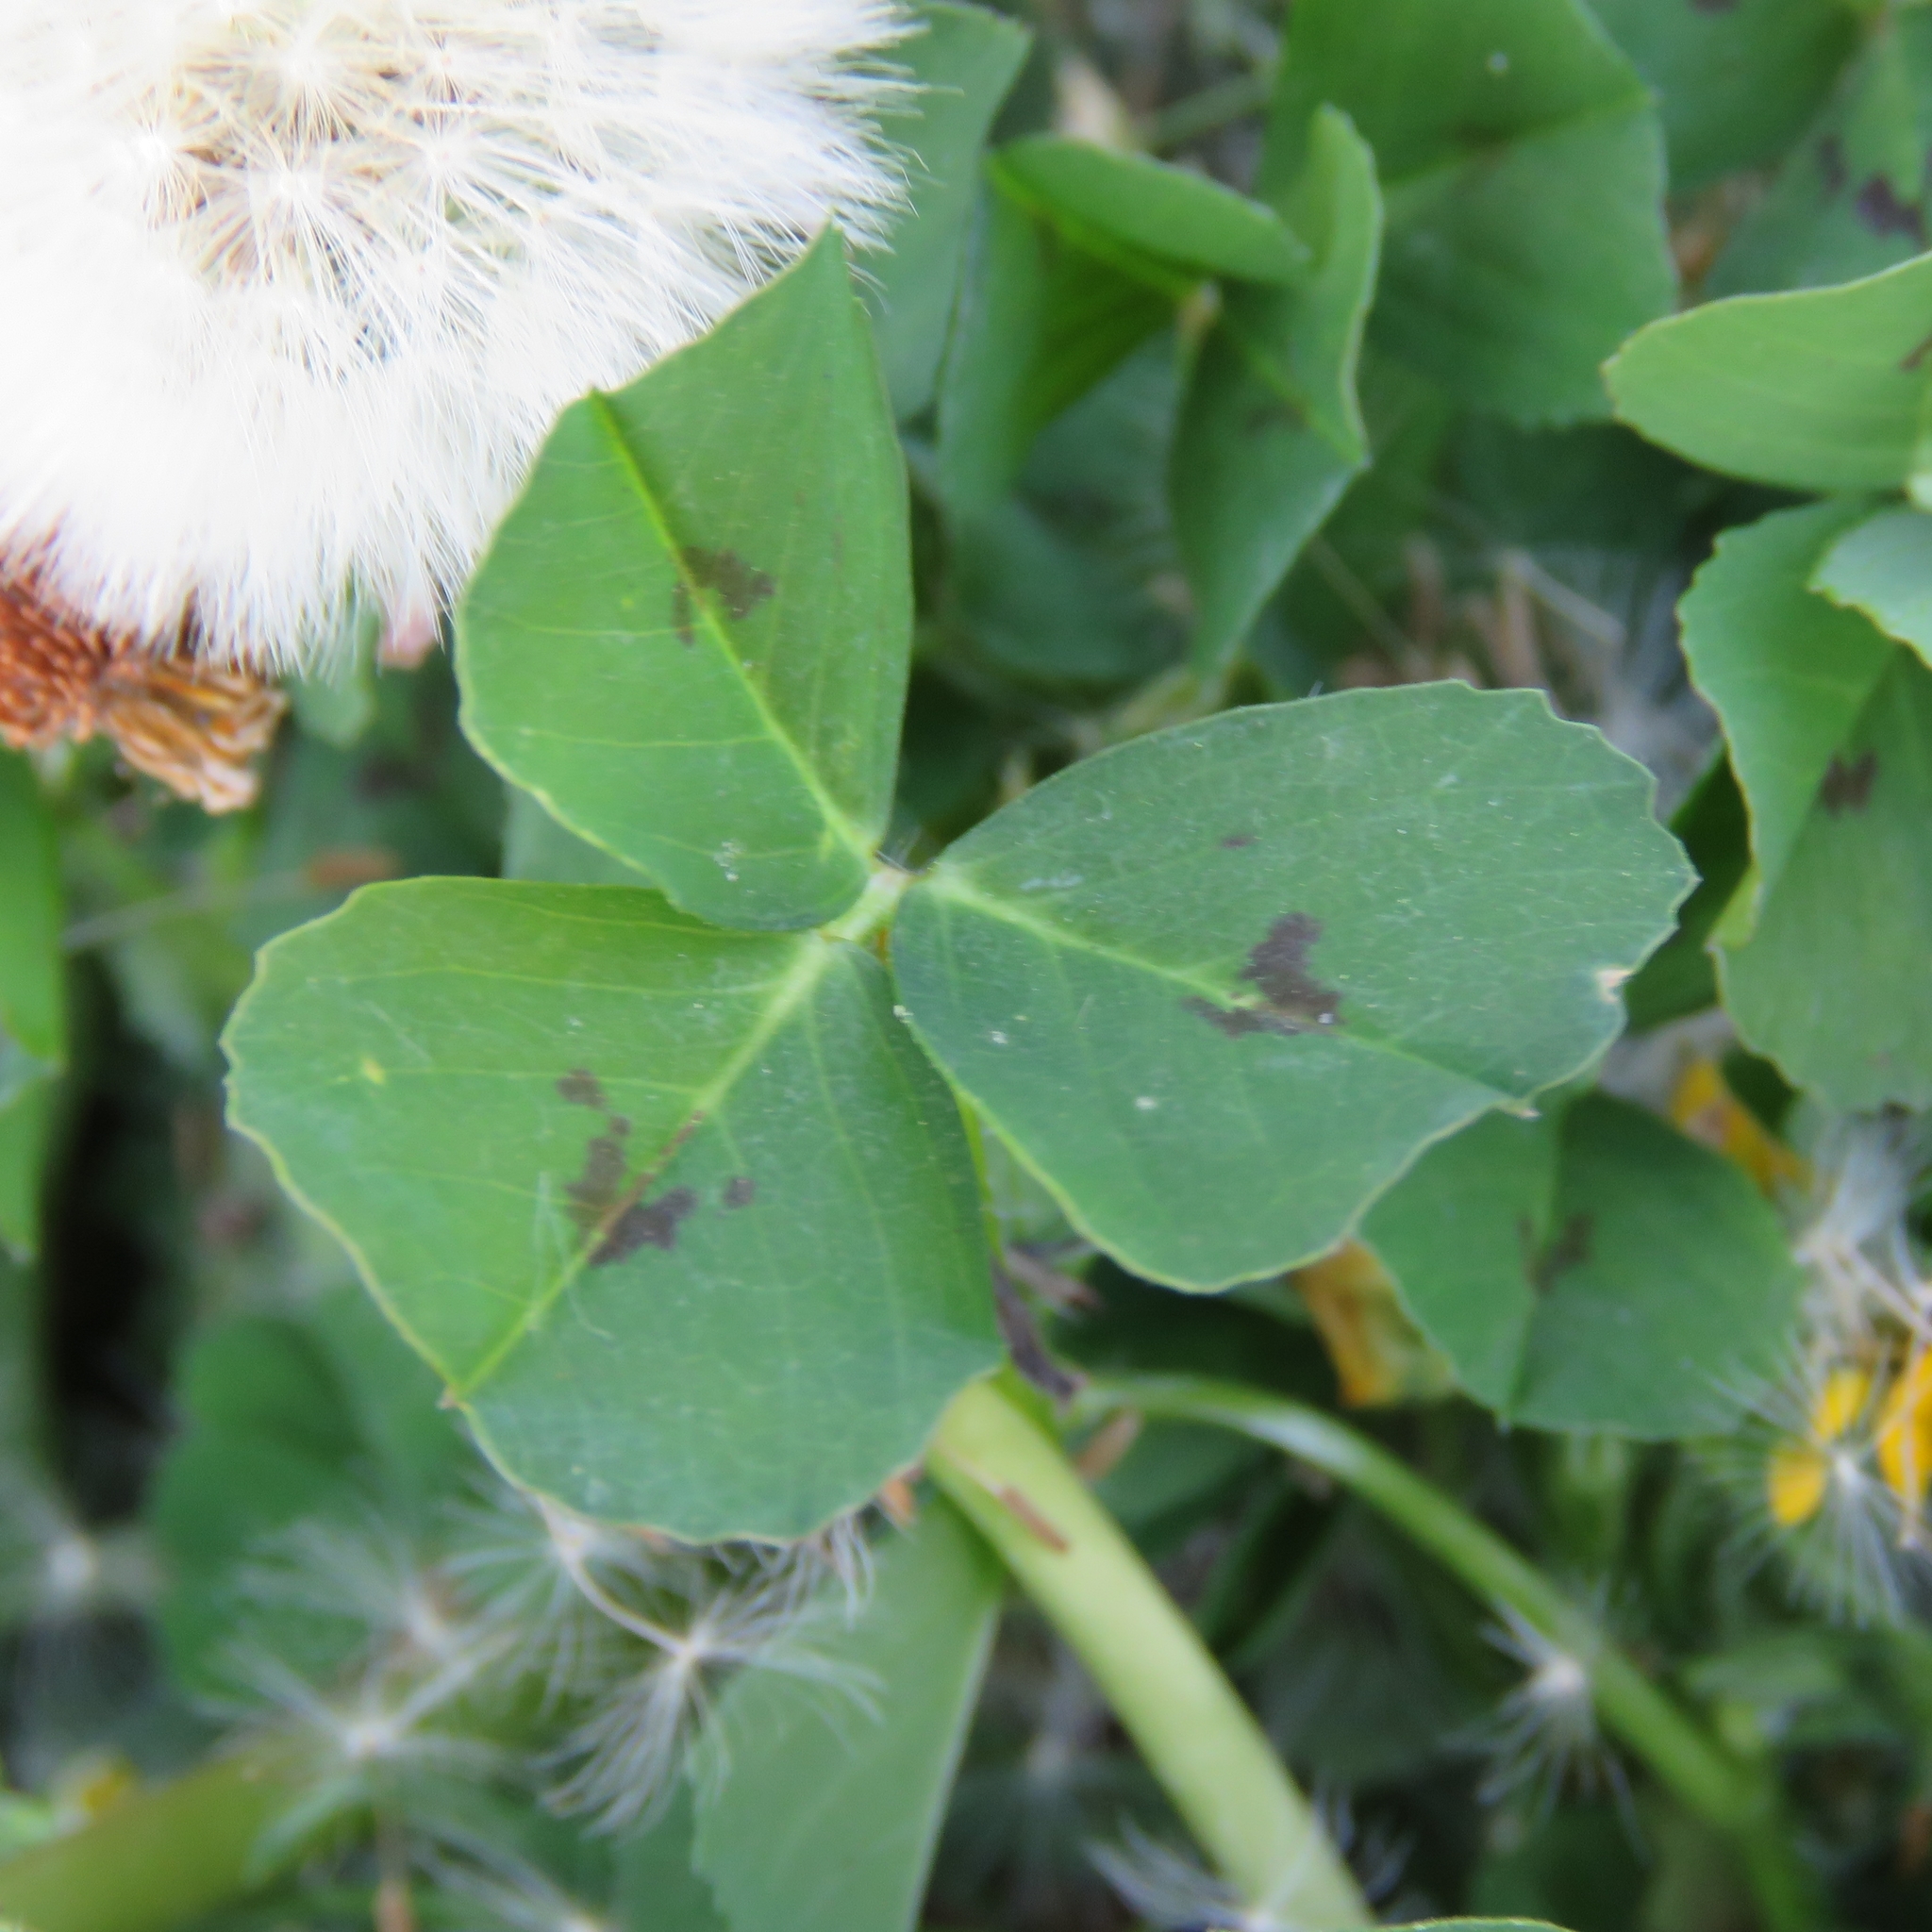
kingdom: Plantae
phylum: Tracheophyta
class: Magnoliopsida
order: Fabales
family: Fabaceae
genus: Medicago
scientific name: Medicago arabica
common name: Spotted medick
